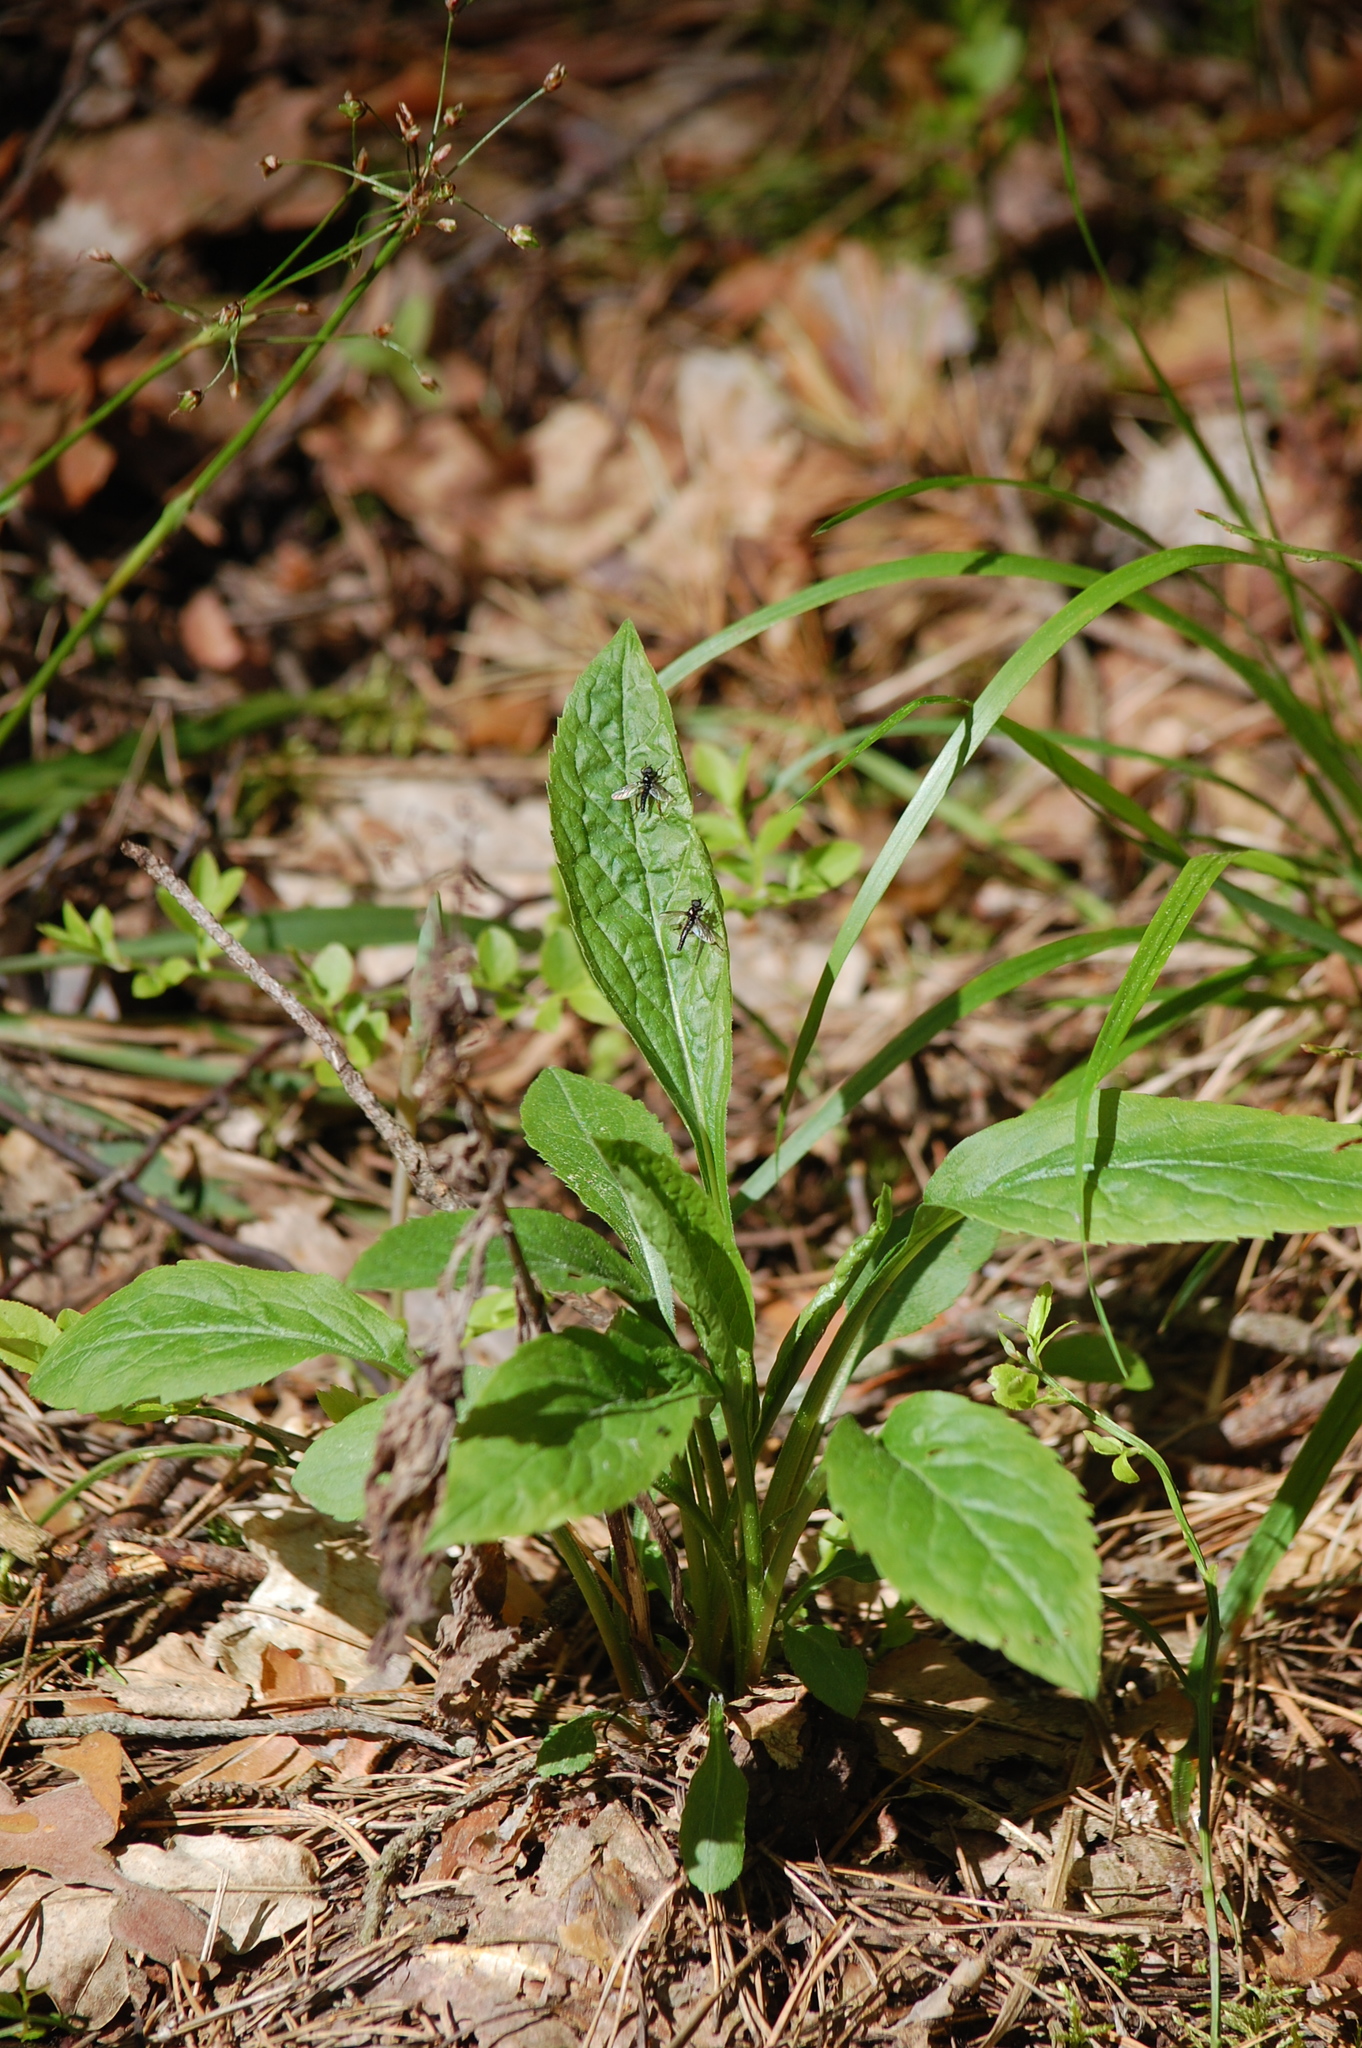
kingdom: Plantae
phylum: Tracheophyta
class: Magnoliopsida
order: Asterales
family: Asteraceae
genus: Solidago
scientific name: Solidago virgaurea
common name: Goldenrod
